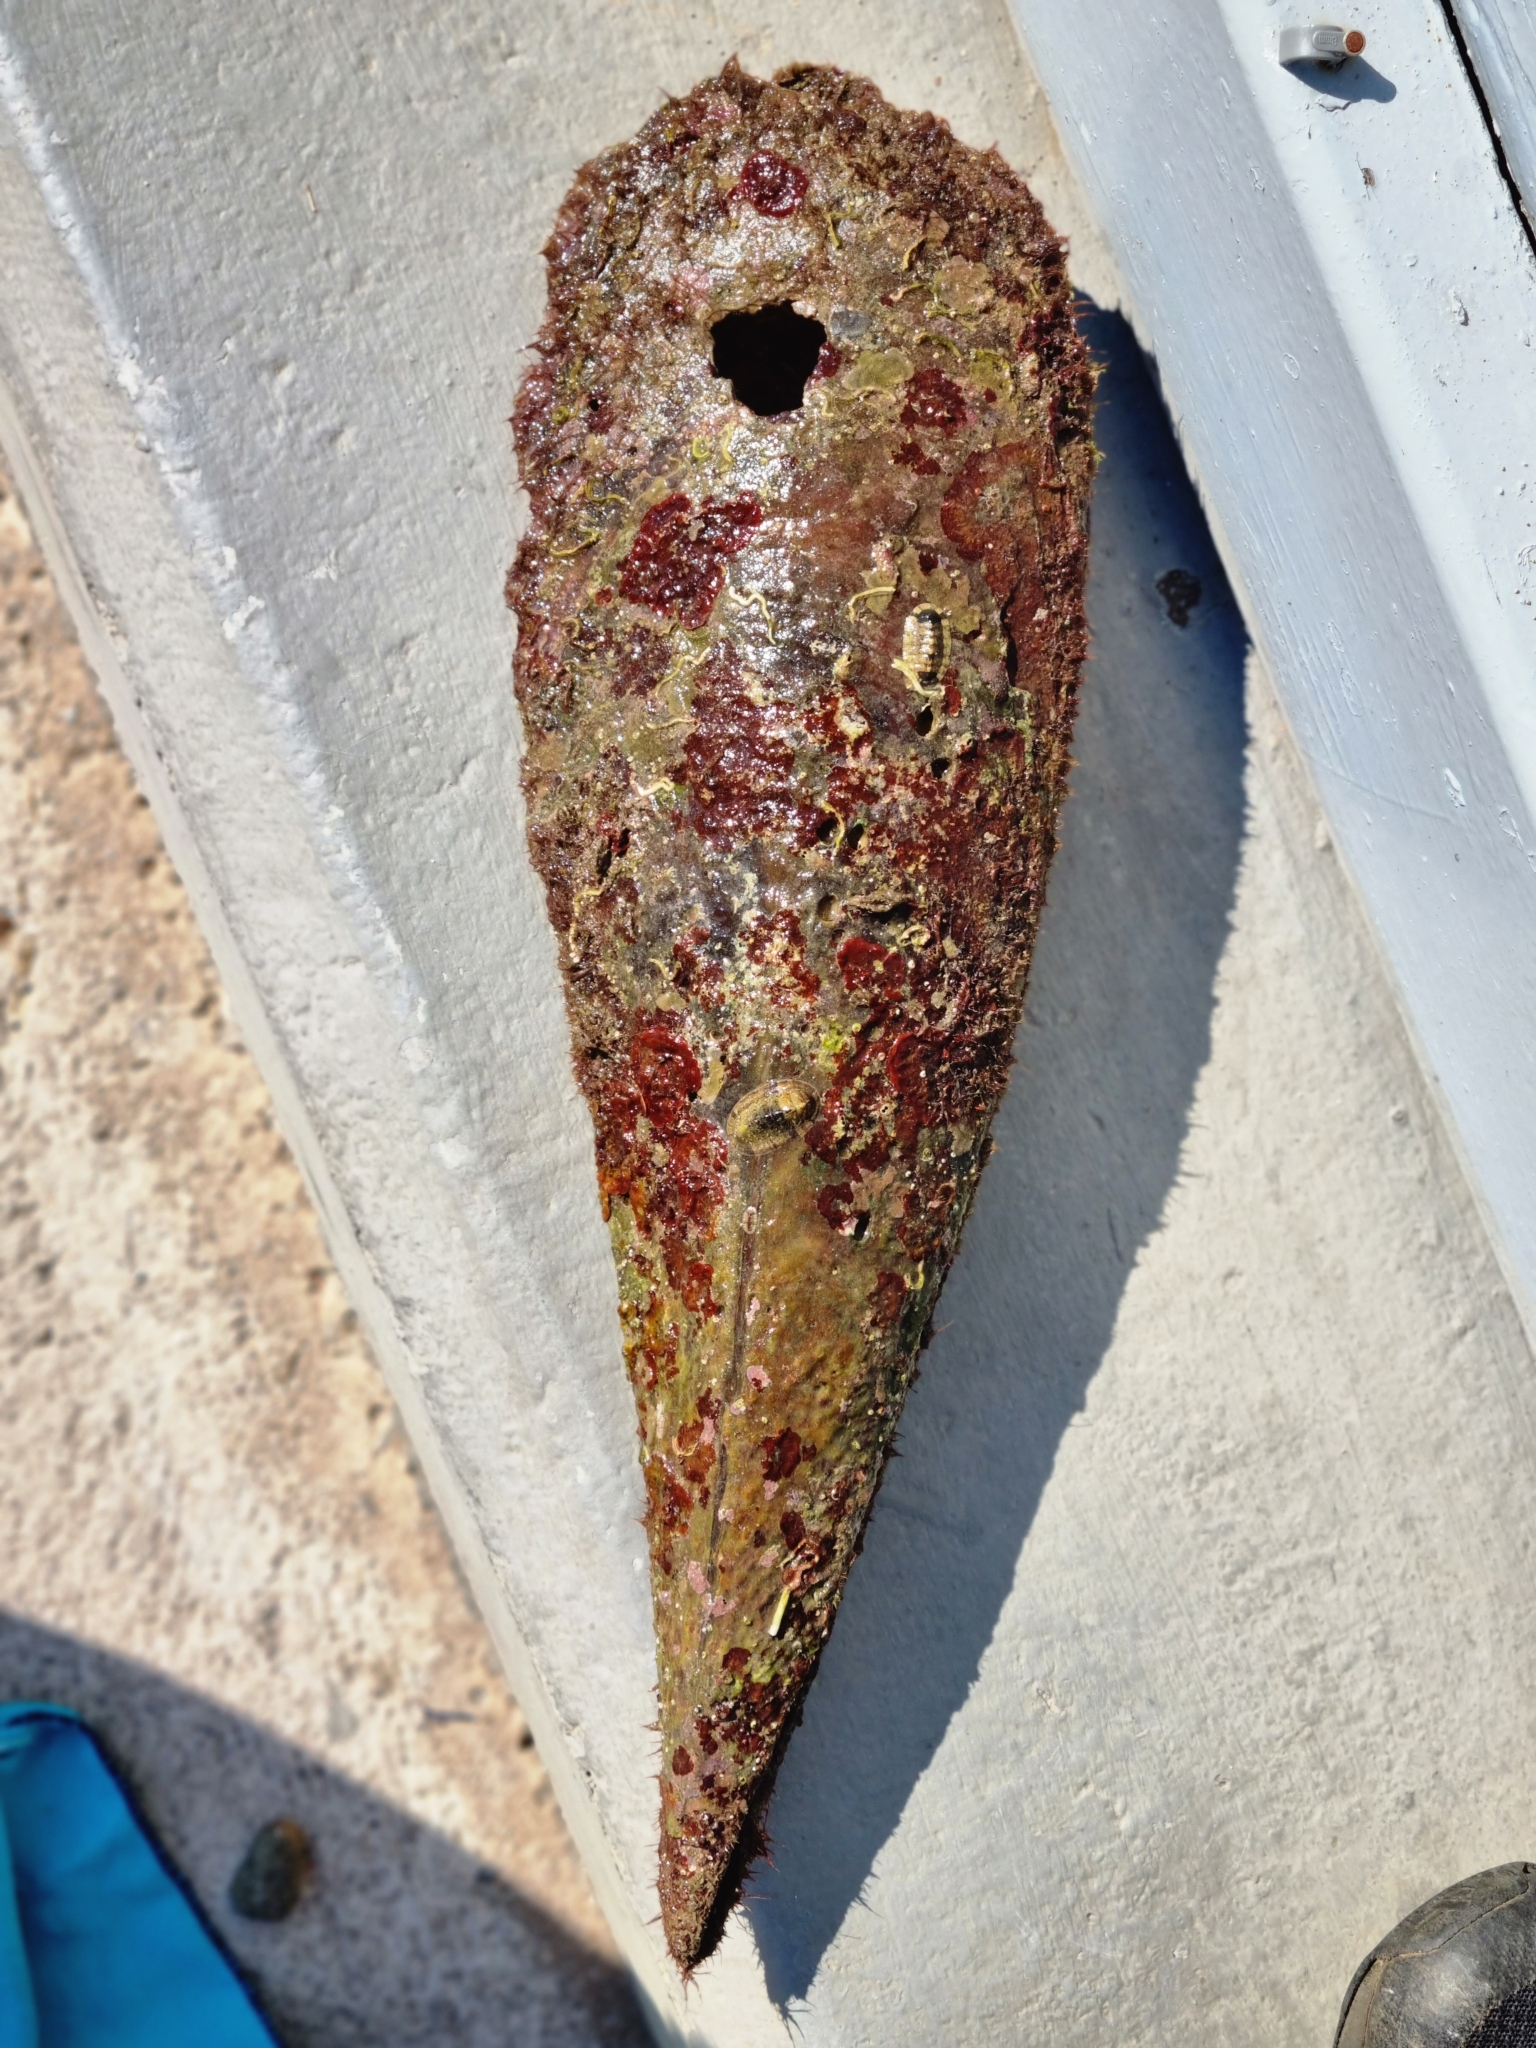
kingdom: Animalia
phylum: Mollusca
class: Bivalvia
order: Ostreida
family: Pinnidae
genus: Pinna
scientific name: Pinna nobilis
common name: Fan mussel
